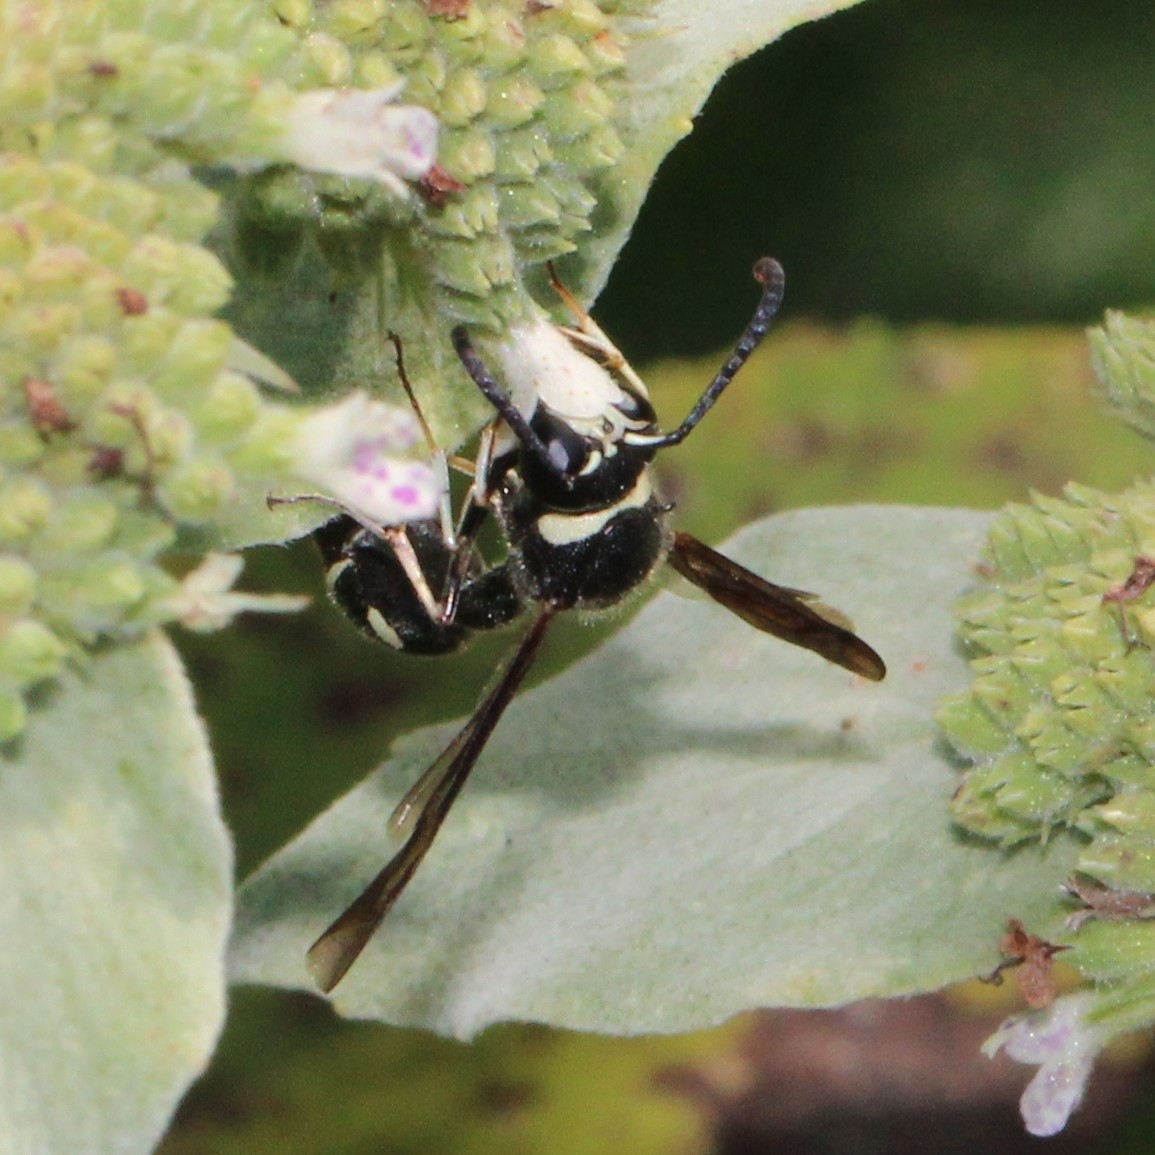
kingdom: Animalia
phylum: Arthropoda
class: Insecta
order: Hymenoptera
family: Vespidae
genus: Eumenes
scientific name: Eumenes fraternus
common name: Fraternal potter wasp
